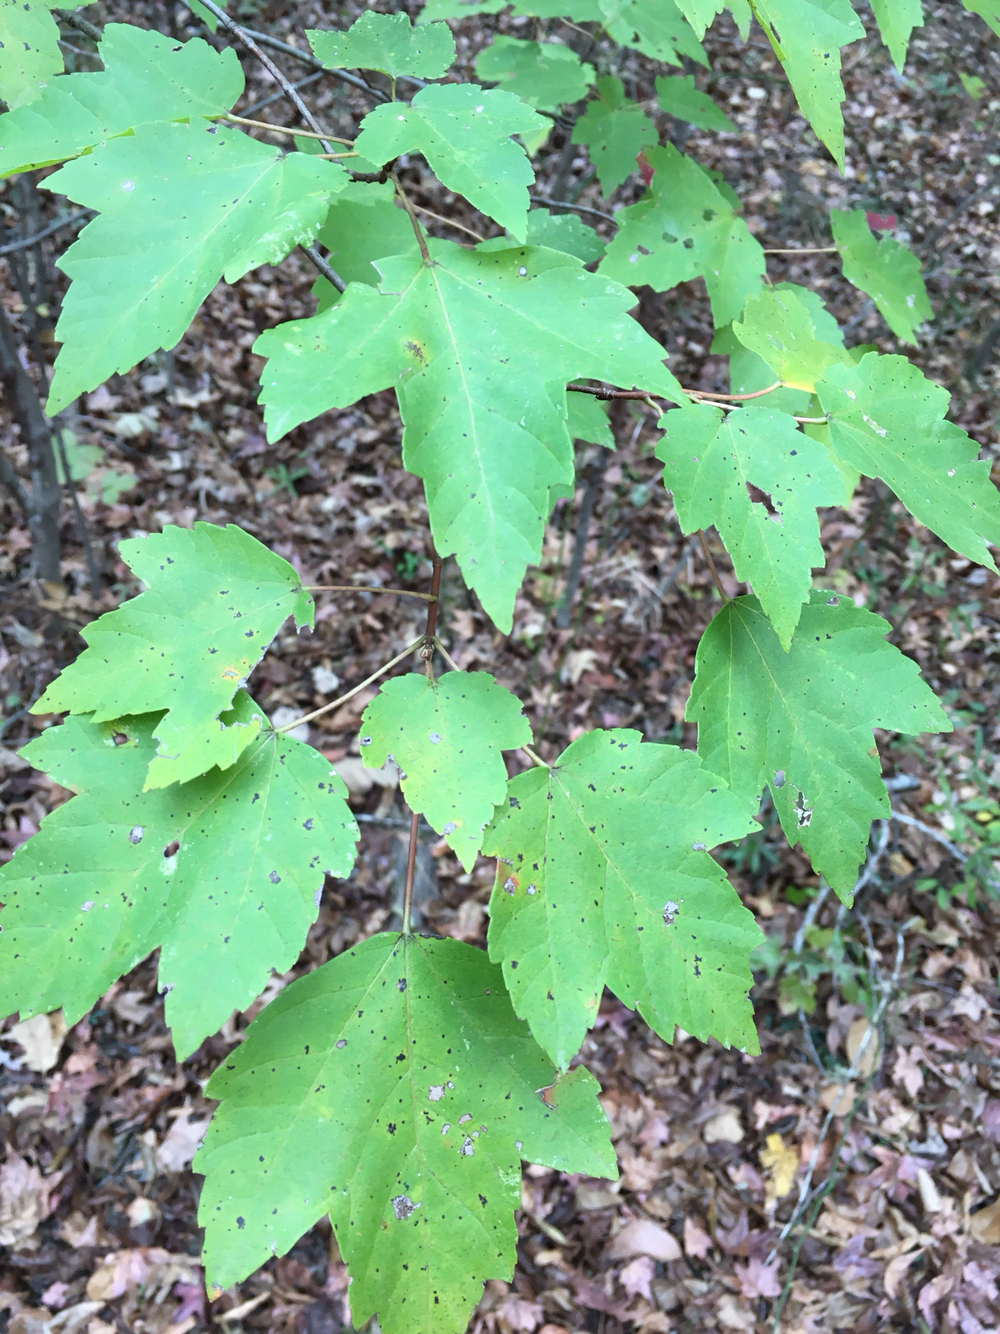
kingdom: Plantae
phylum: Tracheophyta
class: Magnoliopsida
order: Sapindales
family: Sapindaceae
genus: Acer
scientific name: Acer rubrum
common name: Red maple
